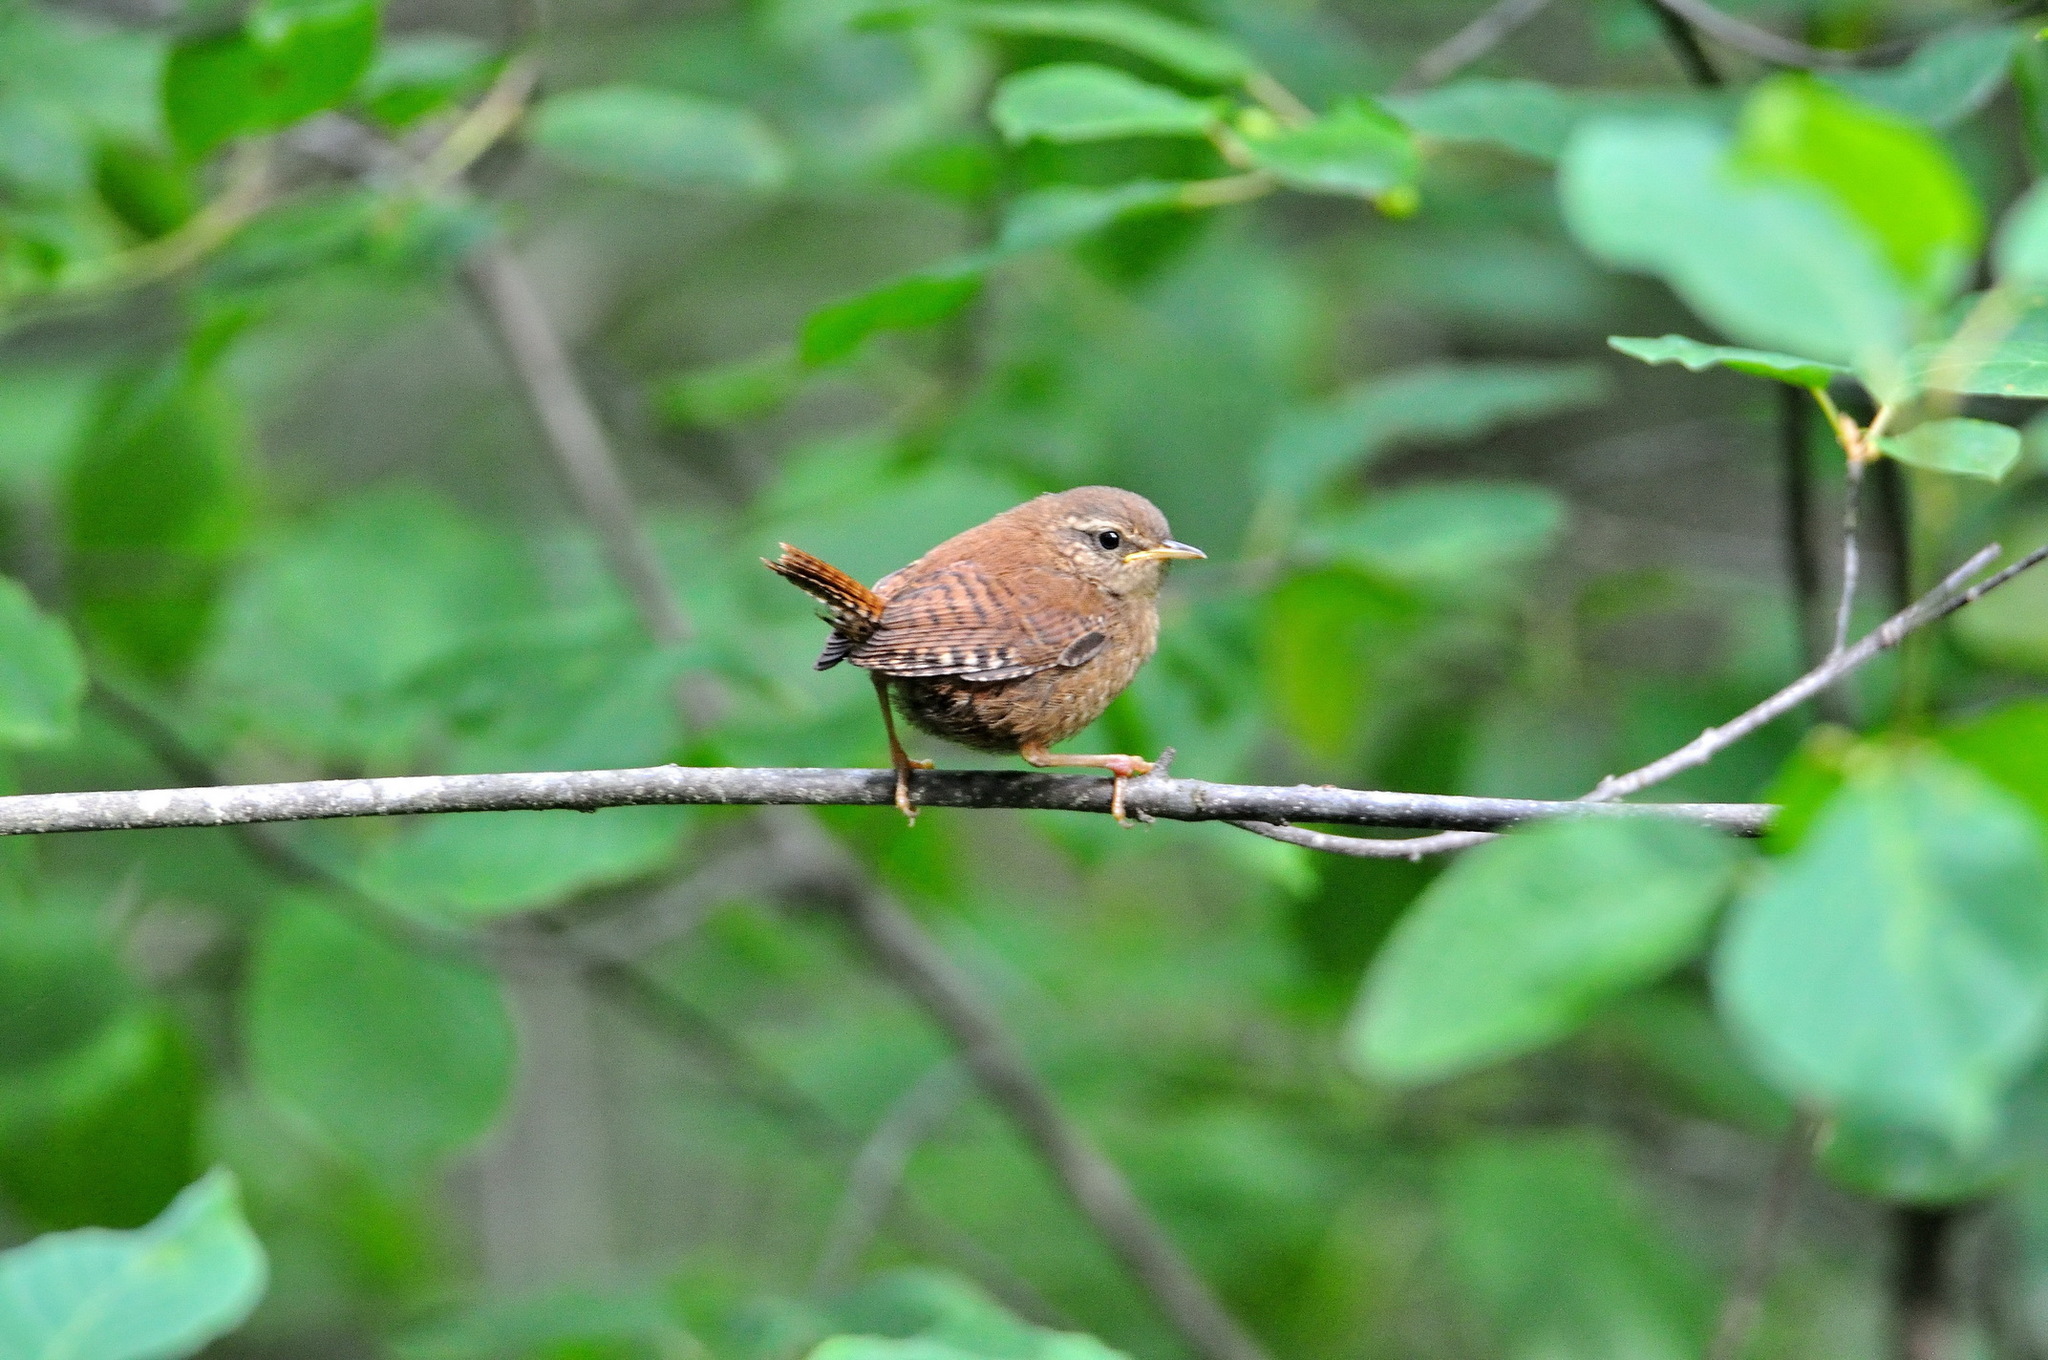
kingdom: Animalia
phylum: Chordata
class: Aves
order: Passeriformes
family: Troglodytidae
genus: Troglodytes
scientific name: Troglodytes troglodytes
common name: Eurasian wren
